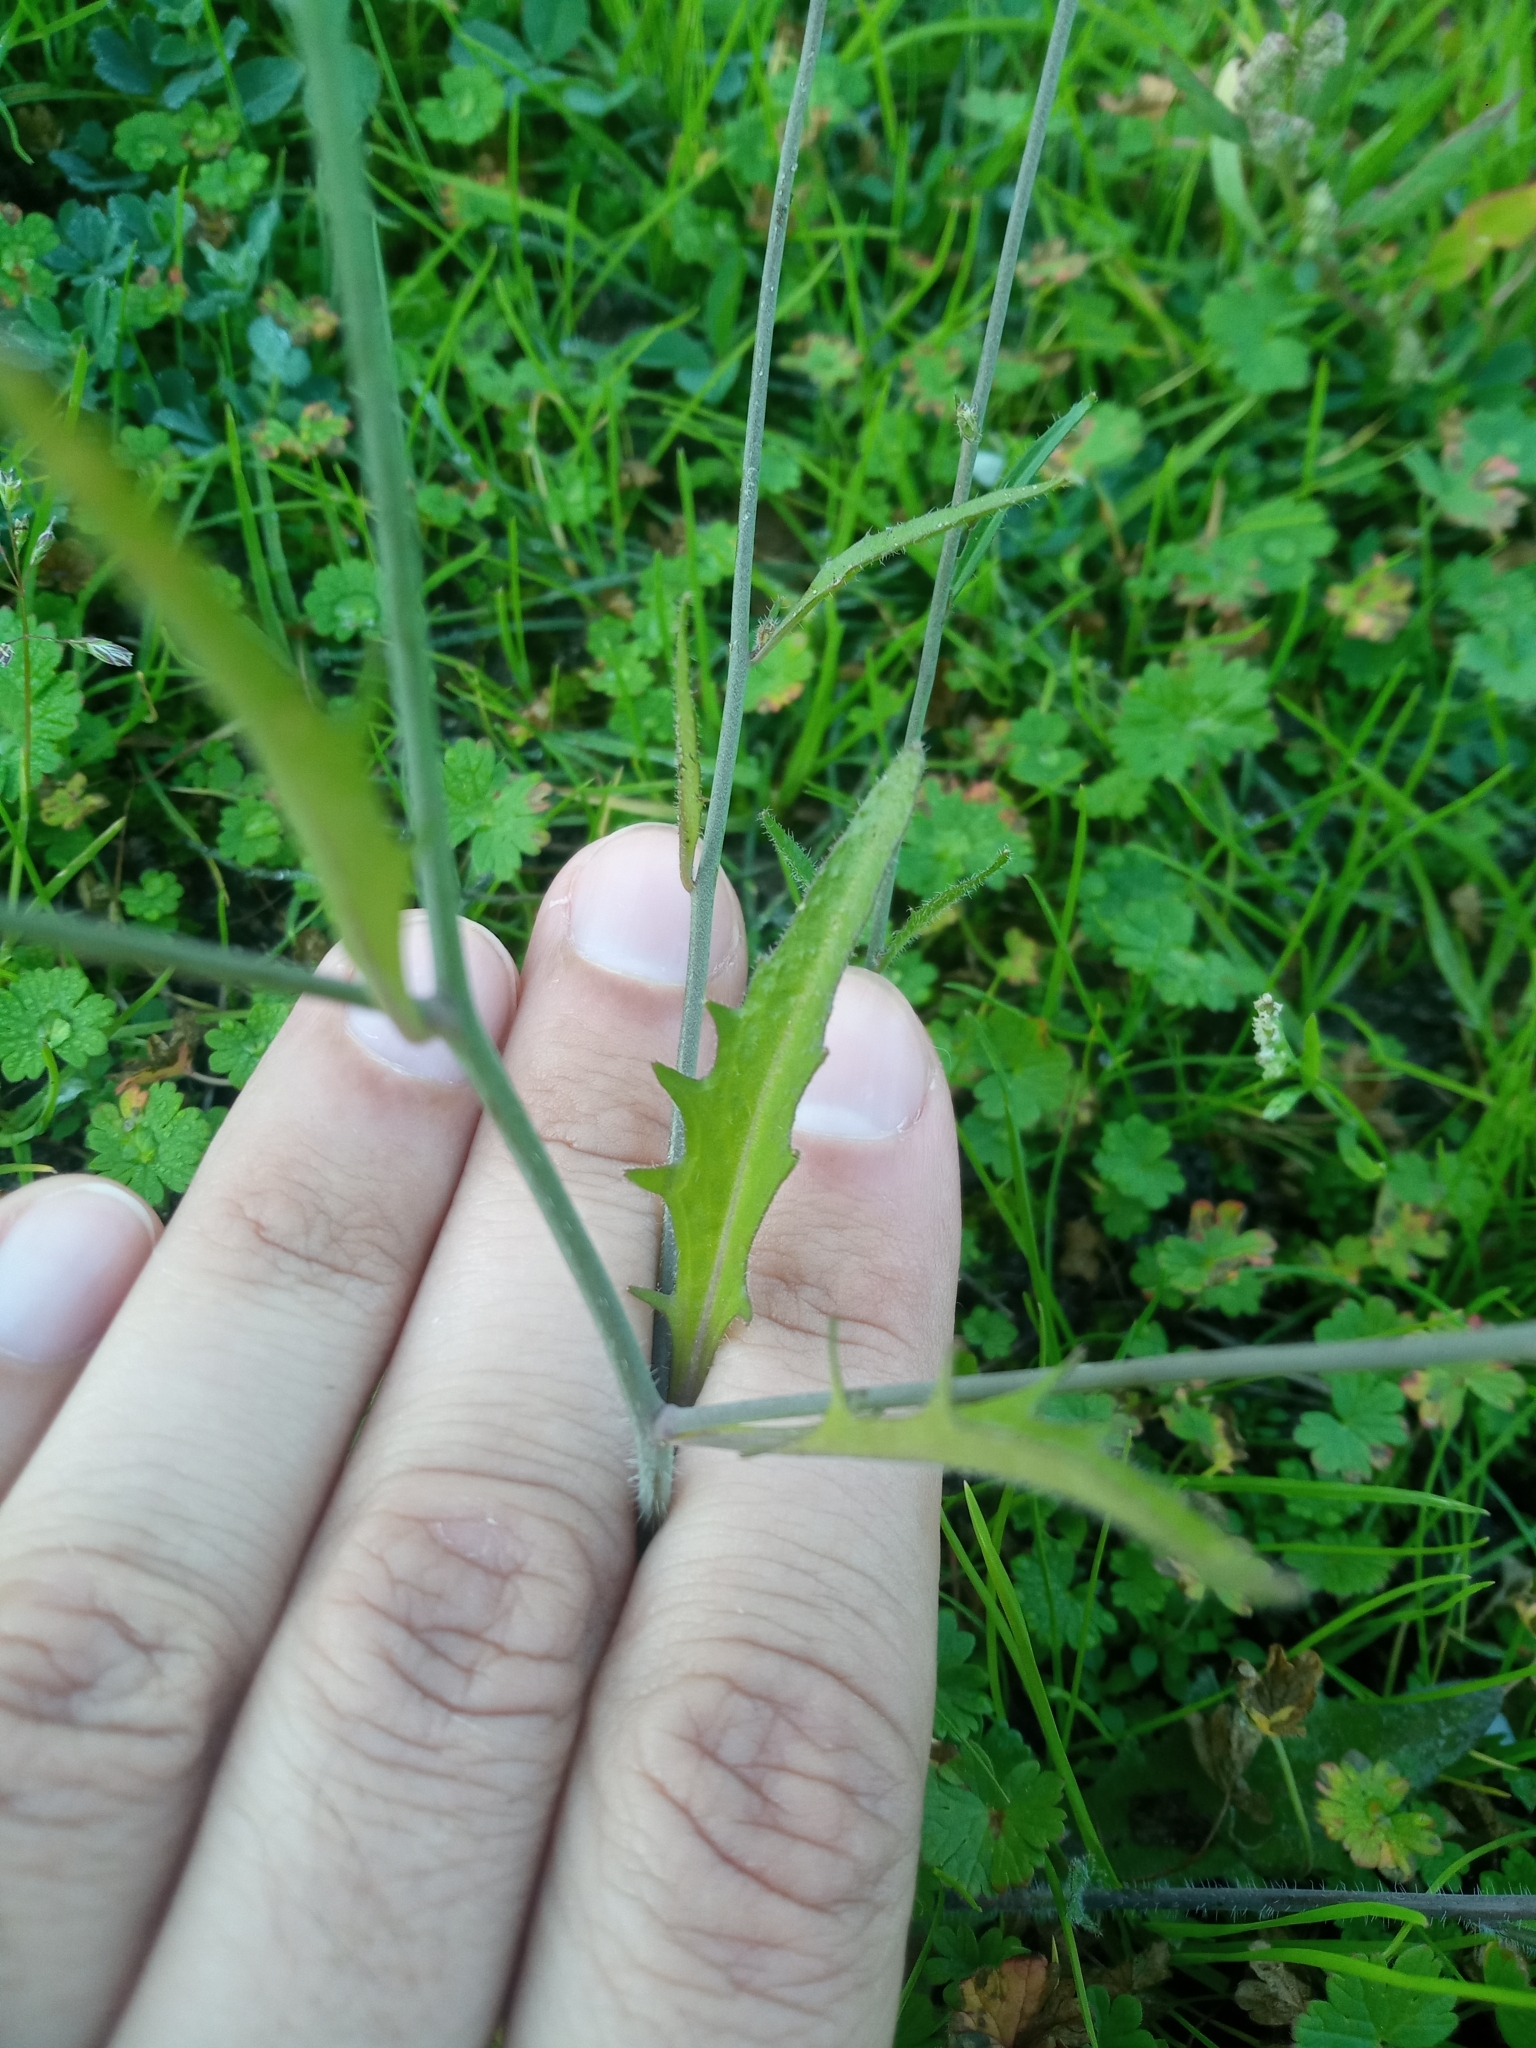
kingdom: Plantae
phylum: Tracheophyta
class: Magnoliopsida
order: Brassicales
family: Brassicaceae
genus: Arabidopsis
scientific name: Arabidopsis arenosa
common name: Sand rock-cress
